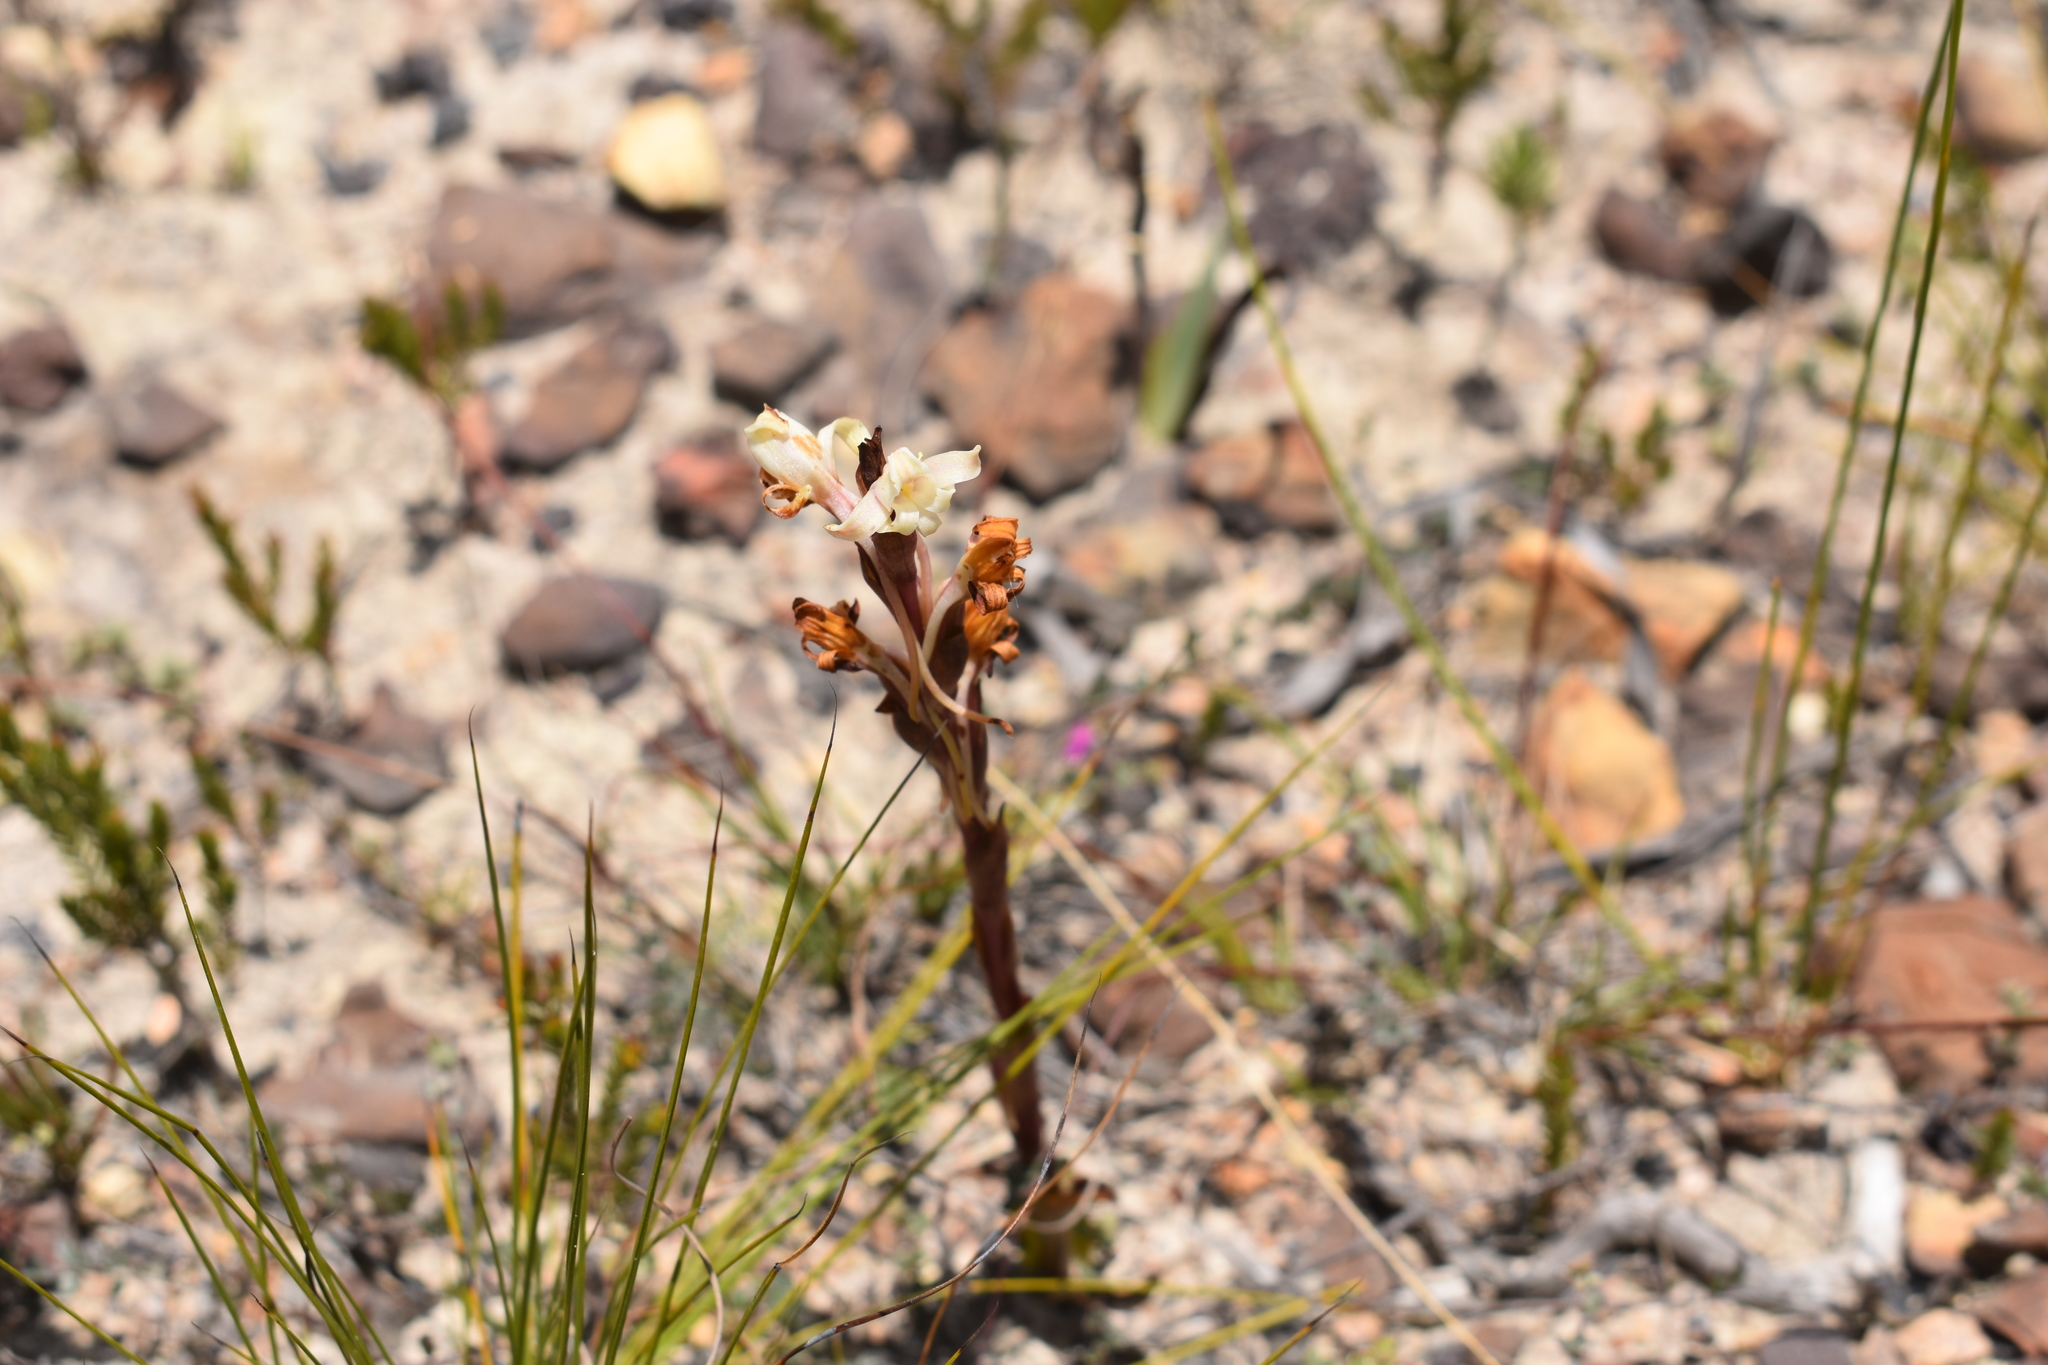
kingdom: Plantae
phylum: Tracheophyta
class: Liliopsida
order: Asparagales
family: Orchidaceae
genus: Satyrium
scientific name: Satyrium stenopetalum
